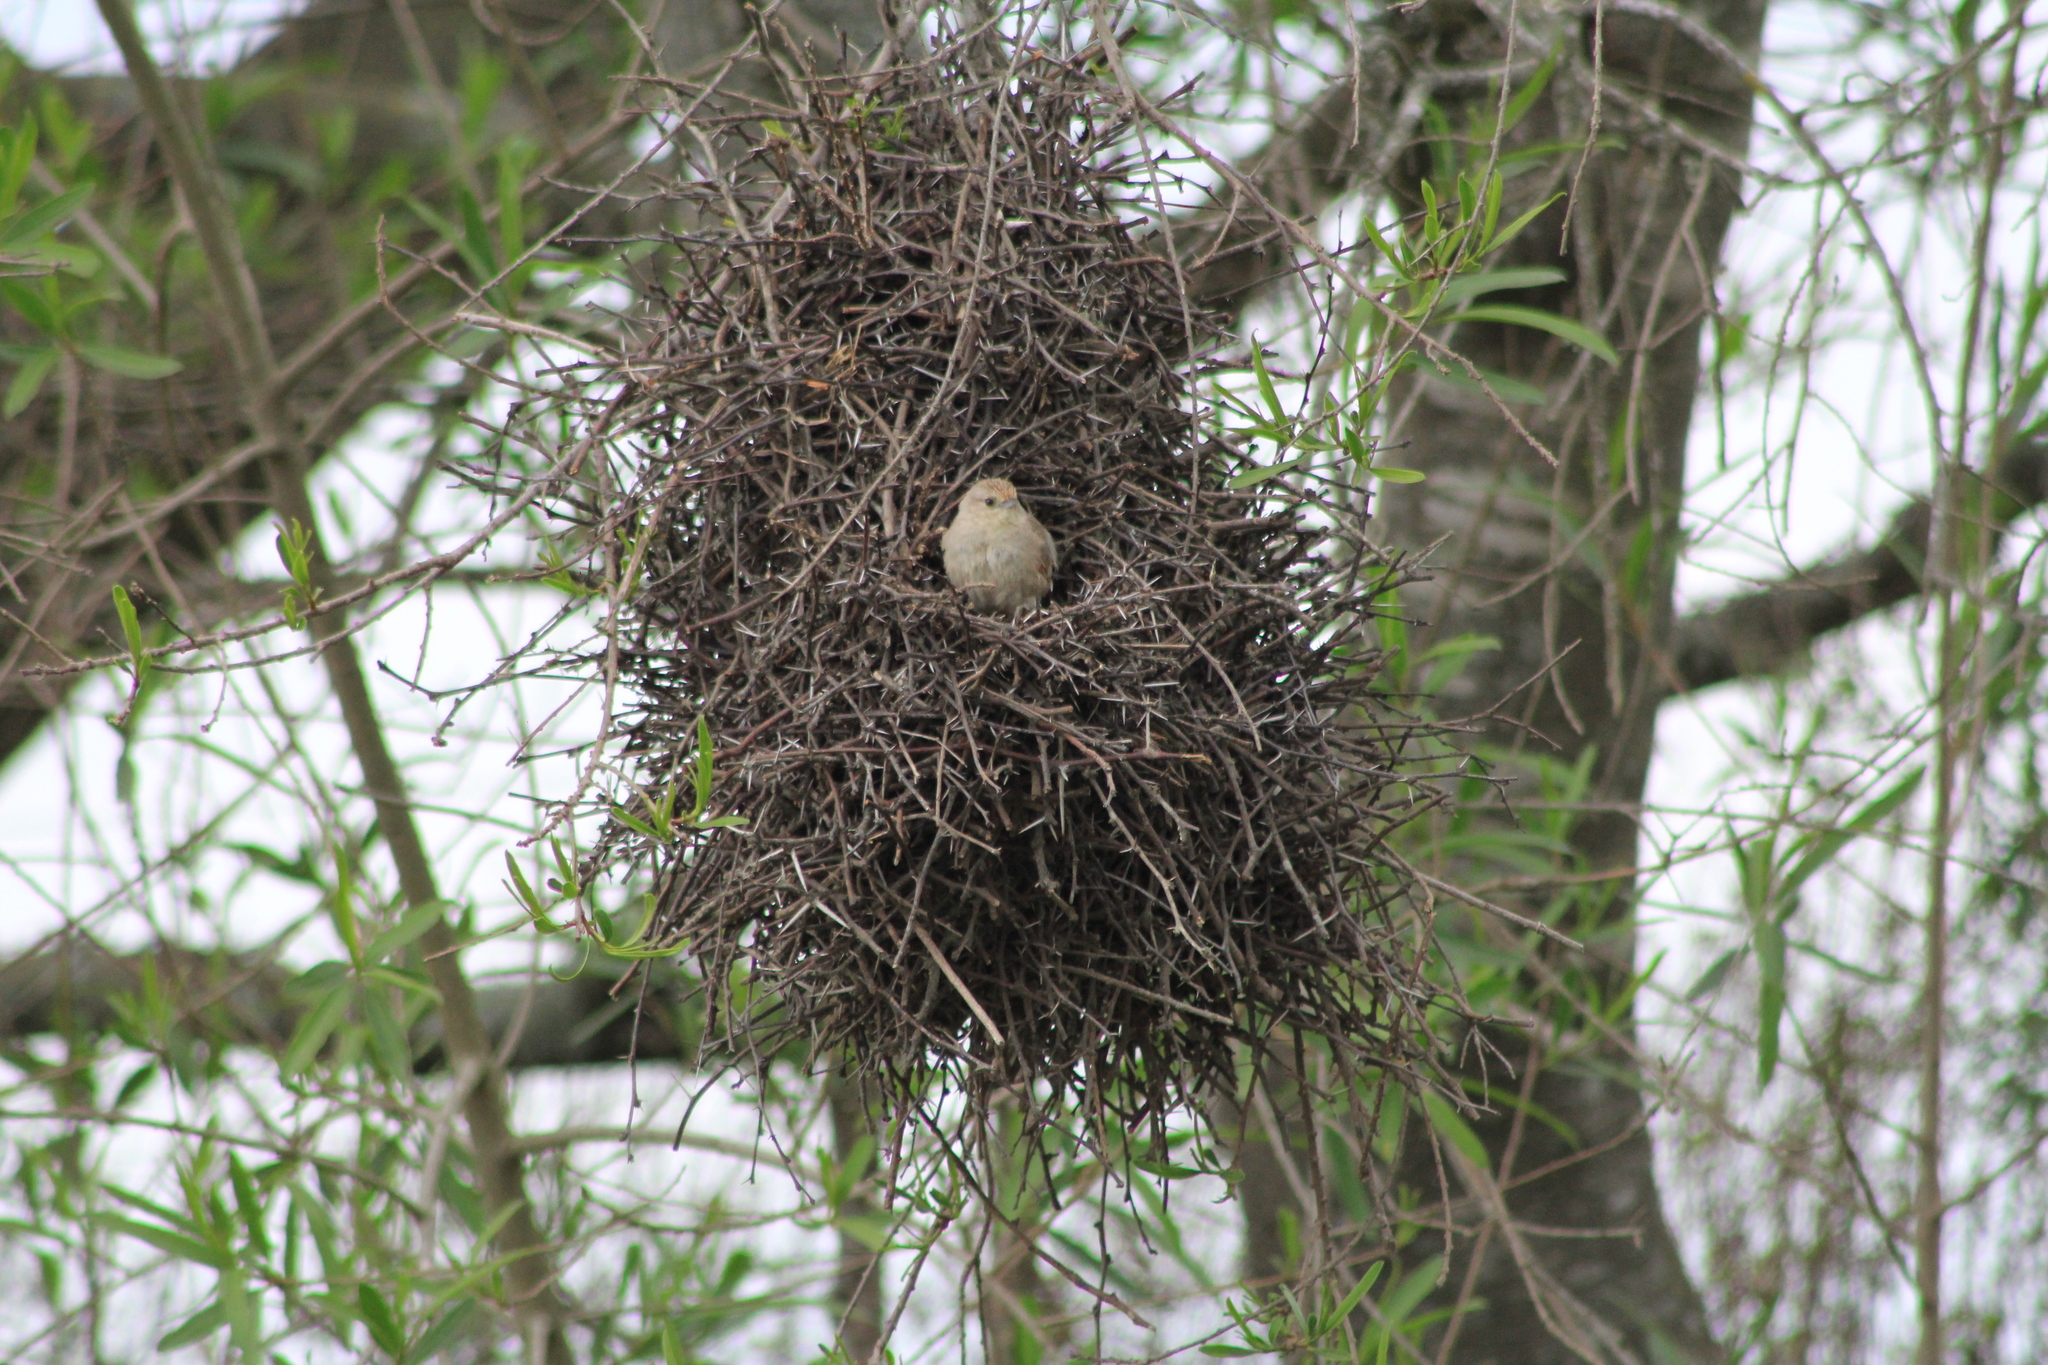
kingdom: Animalia
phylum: Chordata
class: Aves
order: Passeriformes
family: Furnariidae
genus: Phacellodomus
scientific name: Phacellodomus sibilatrix
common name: Little thornbird
